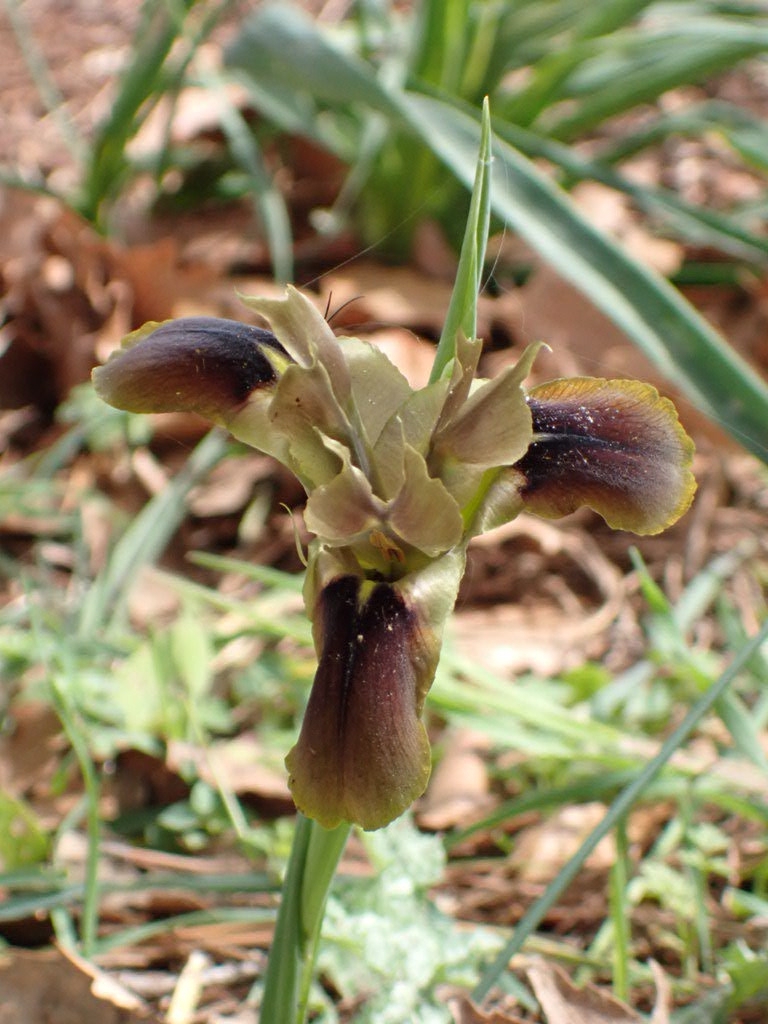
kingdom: Plantae
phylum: Tracheophyta
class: Liliopsida
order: Asparagales
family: Iridaceae
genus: Iris
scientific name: Iris tuberosa
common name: Snake's-head iris
